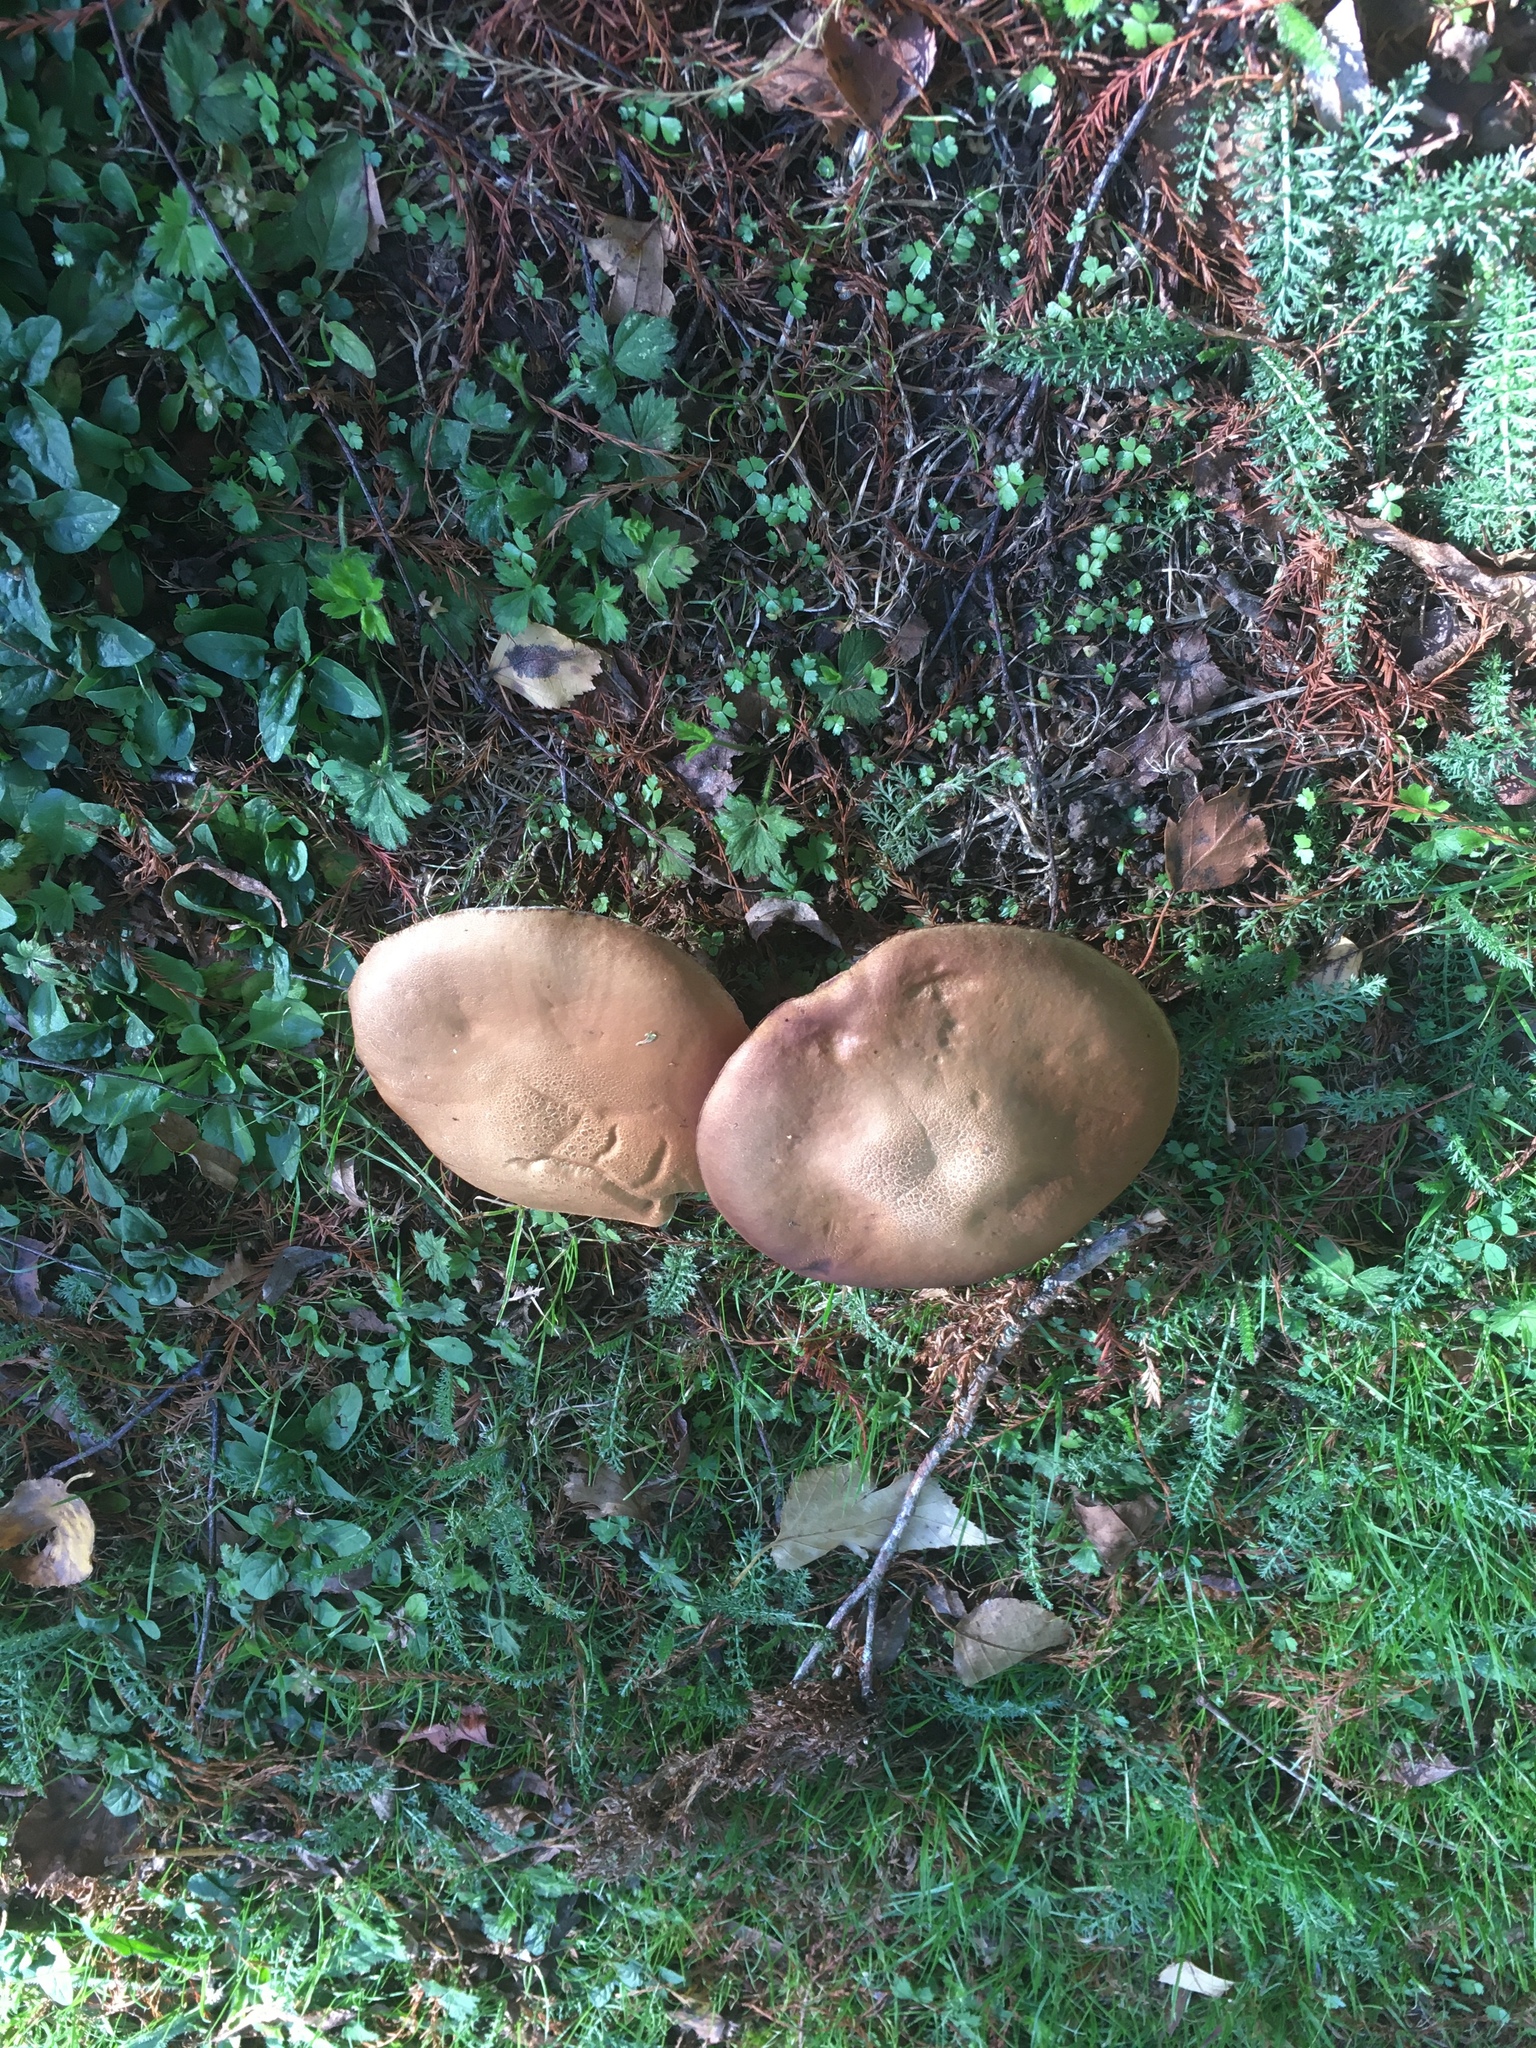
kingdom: Fungi
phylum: Basidiomycota
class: Agaricomycetes
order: Boletales
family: Boletaceae
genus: Leccinum
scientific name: Leccinum scabrum
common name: Blushing bolete
